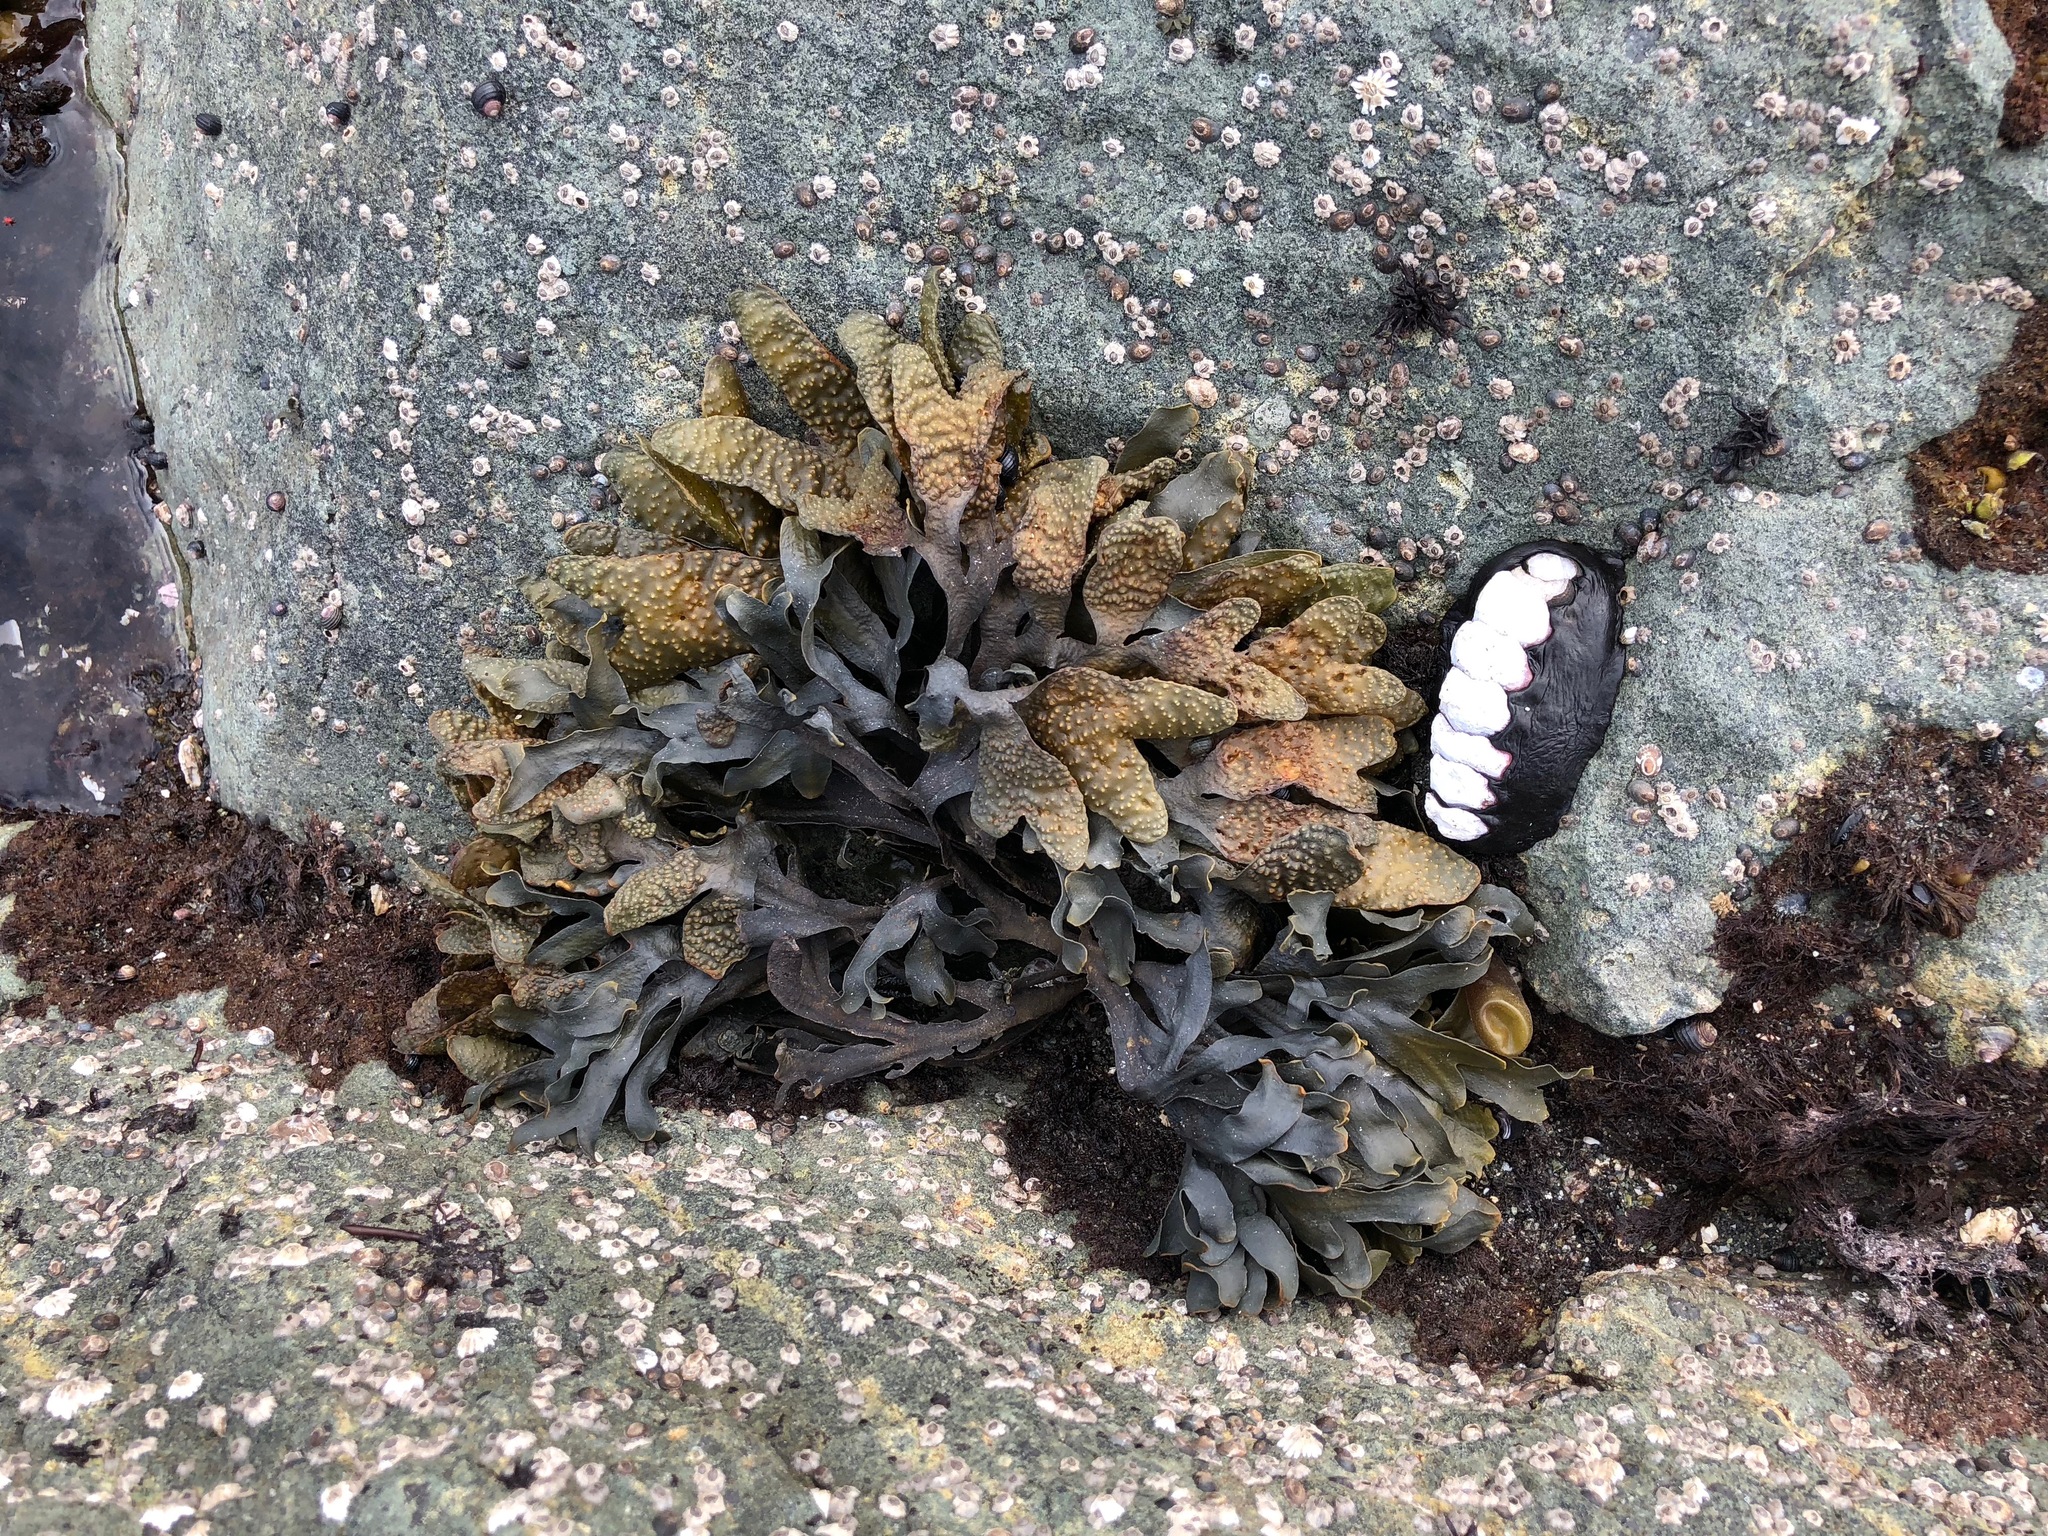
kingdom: Chromista
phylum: Ochrophyta
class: Phaeophyceae
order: Fucales
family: Fucaceae
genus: Fucus
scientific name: Fucus distichus
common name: Rockweed
